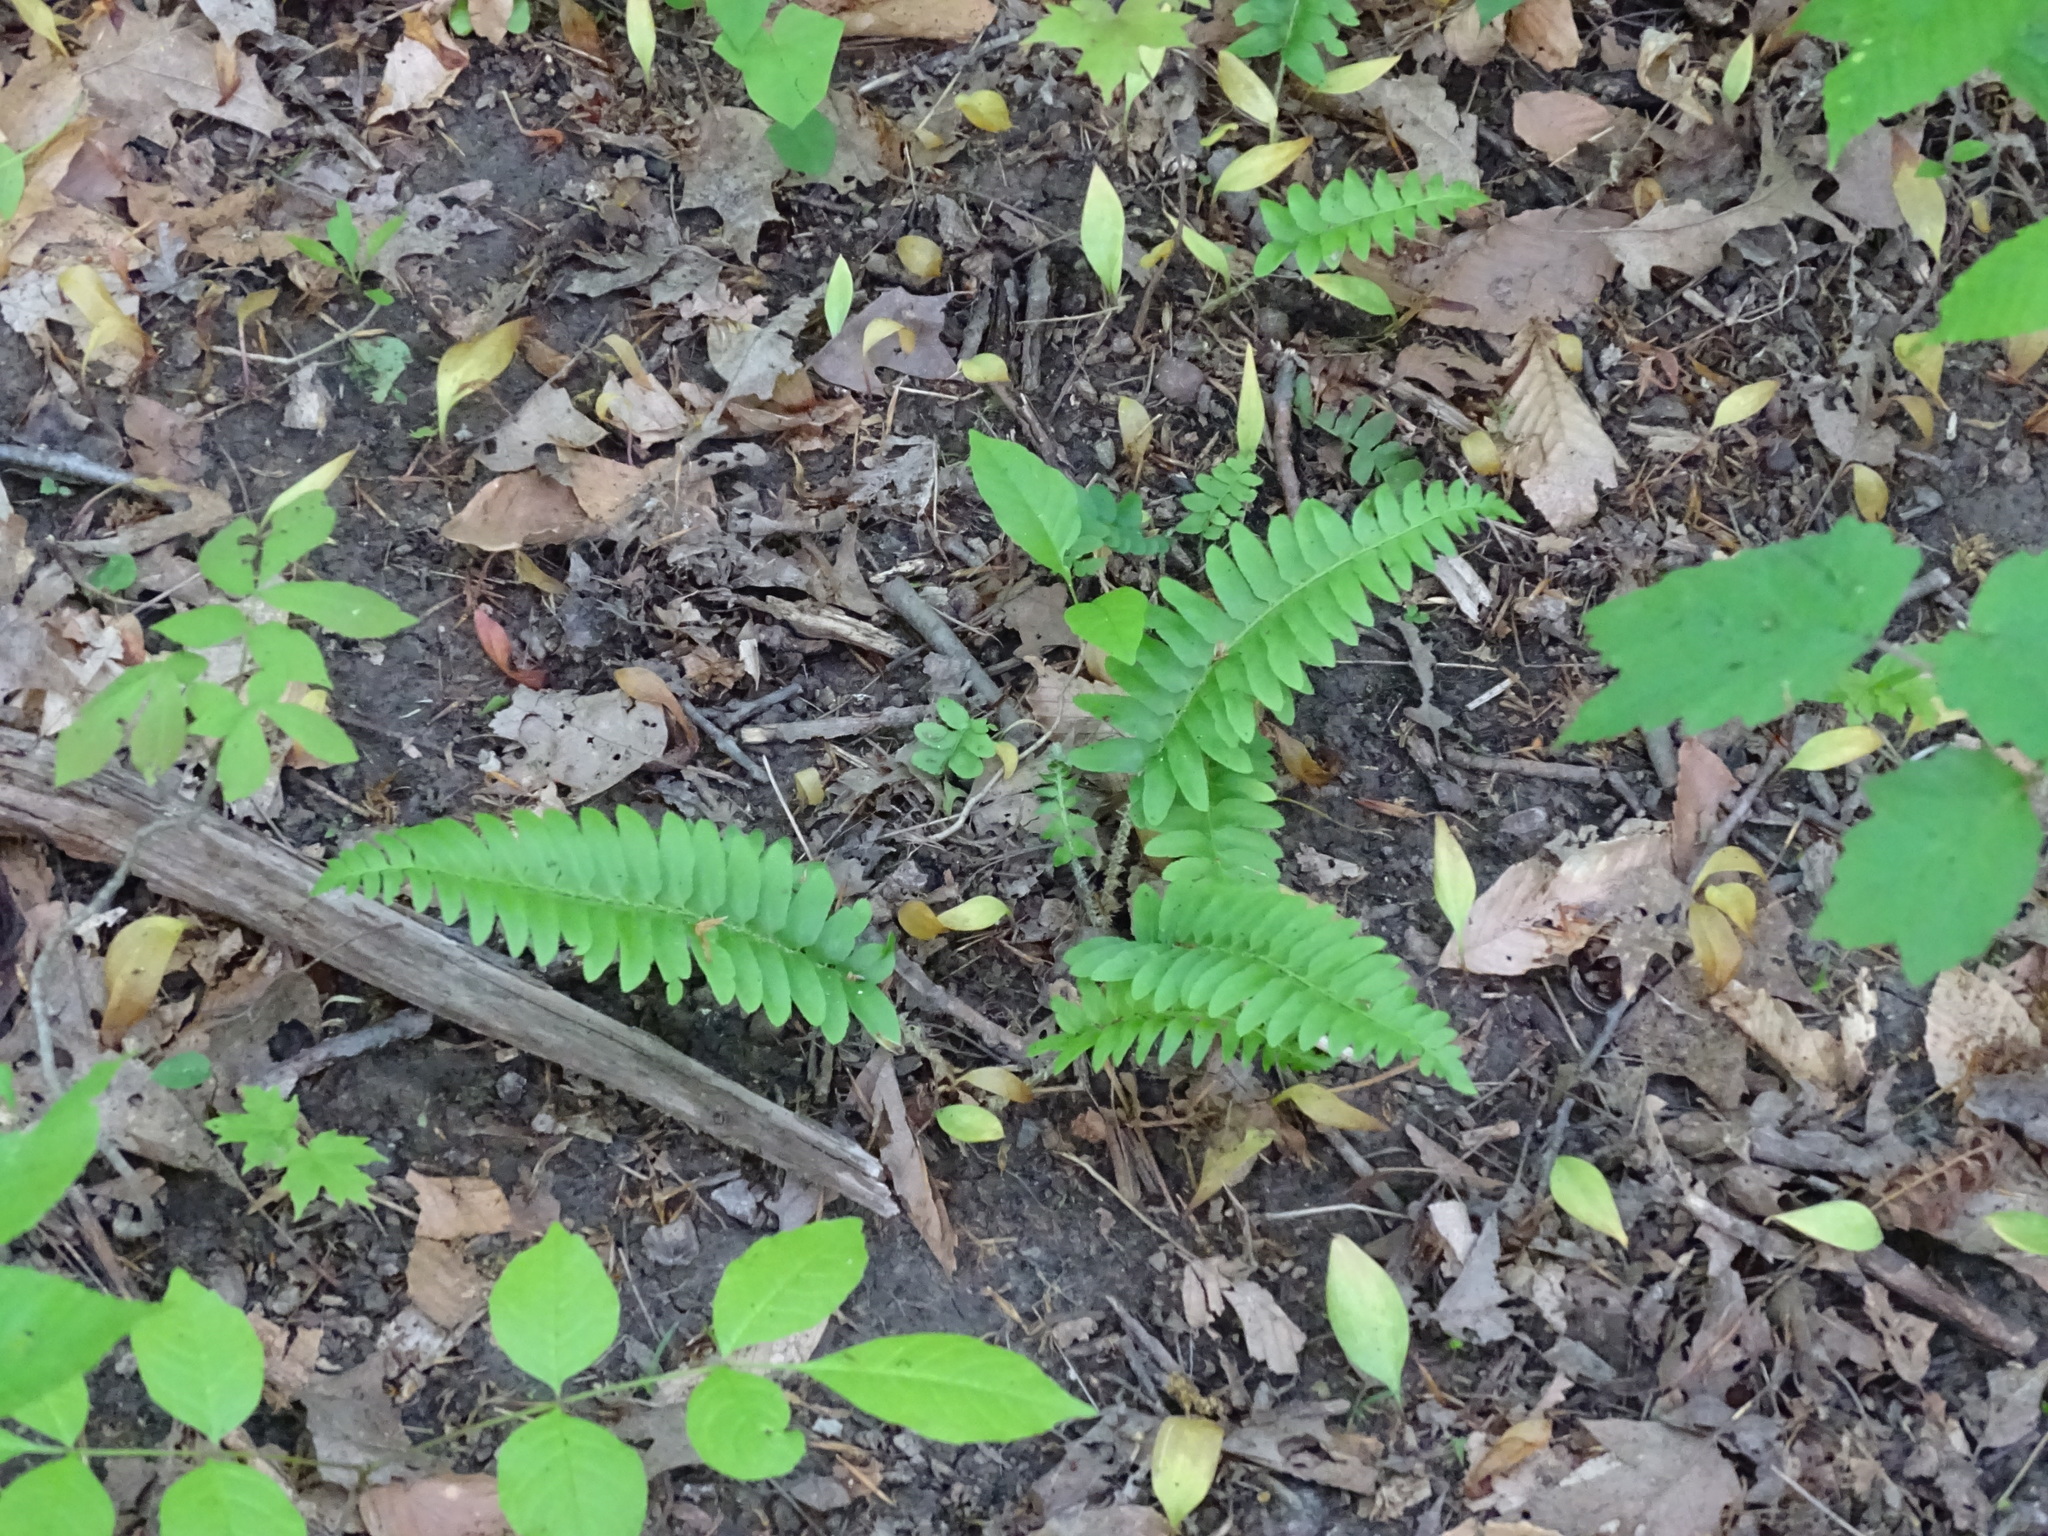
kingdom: Plantae
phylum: Tracheophyta
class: Polypodiopsida
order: Polypodiales
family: Dryopteridaceae
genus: Polystichum
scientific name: Polystichum acrostichoides
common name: Christmas fern
